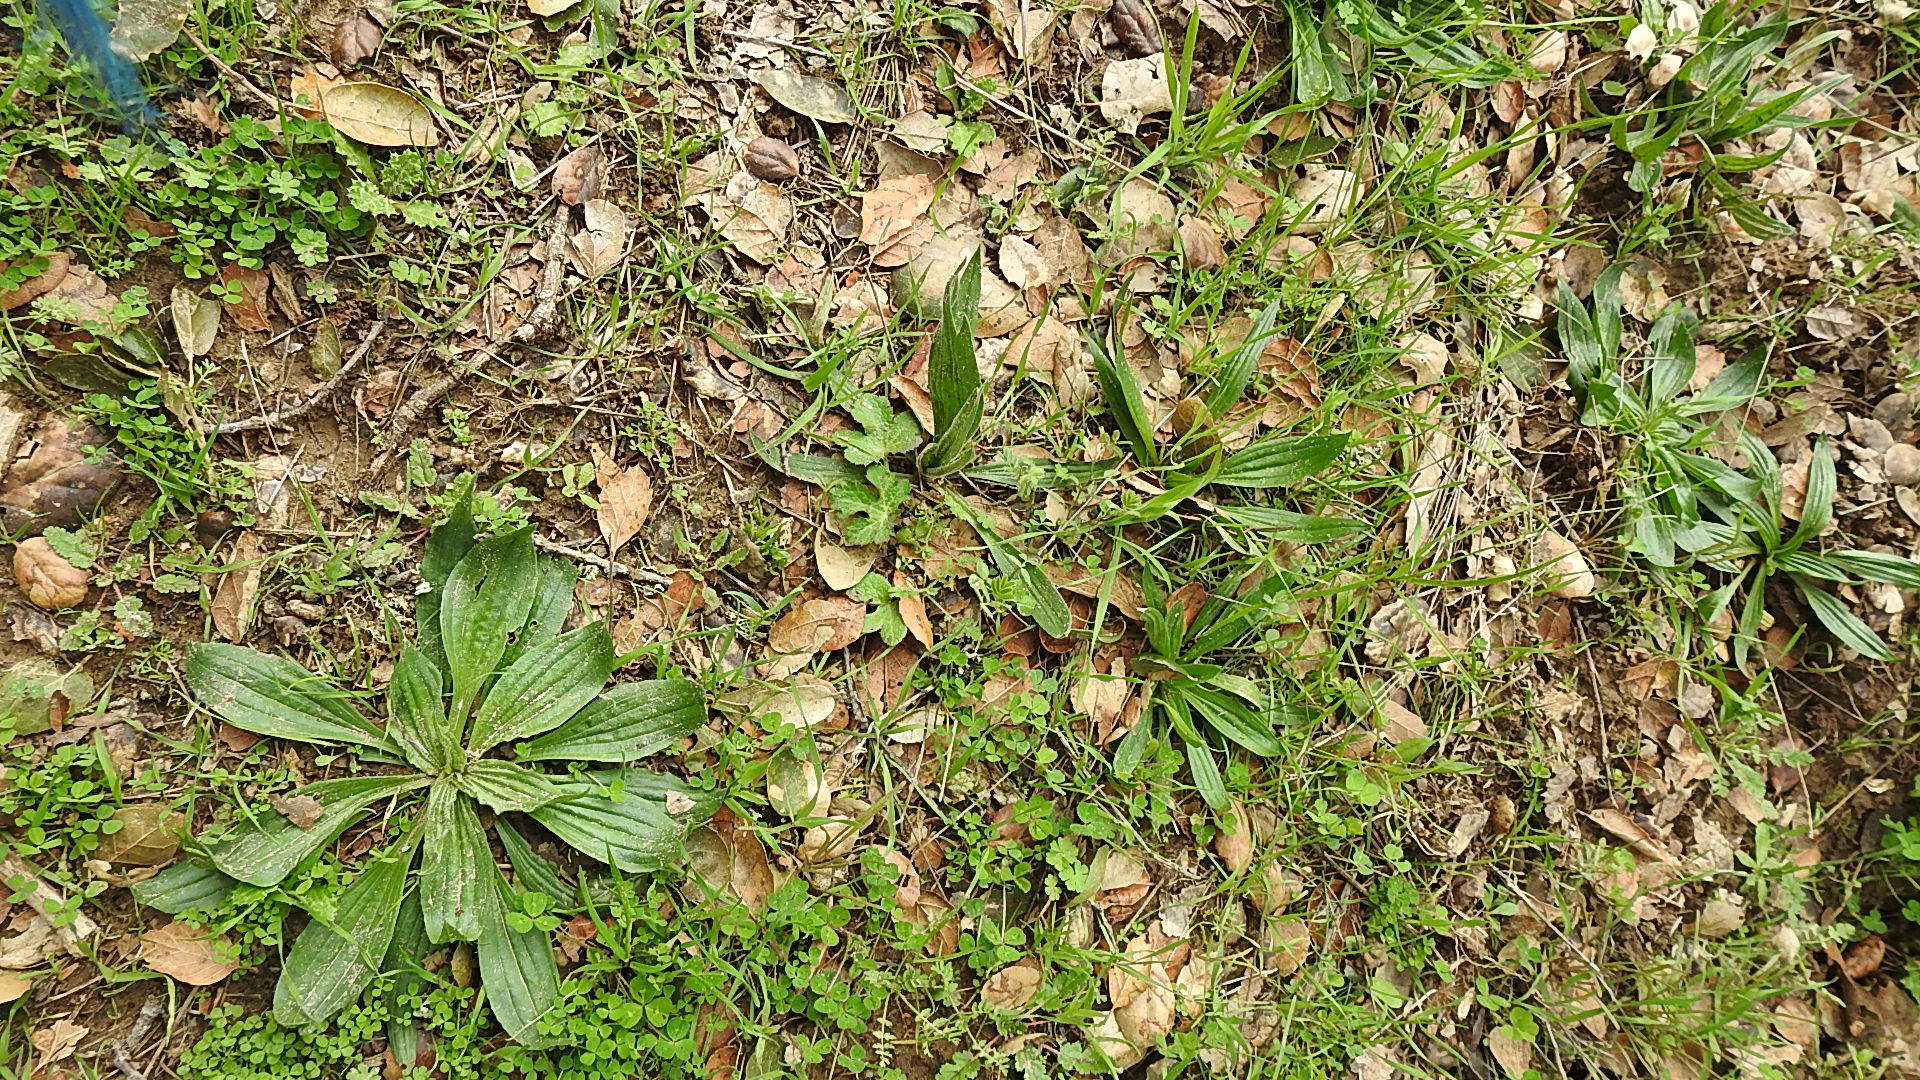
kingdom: Plantae
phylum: Tracheophyta
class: Magnoliopsida
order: Lamiales
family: Plantaginaceae
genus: Plantago
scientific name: Plantago lanceolata
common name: Ribwort plantain
